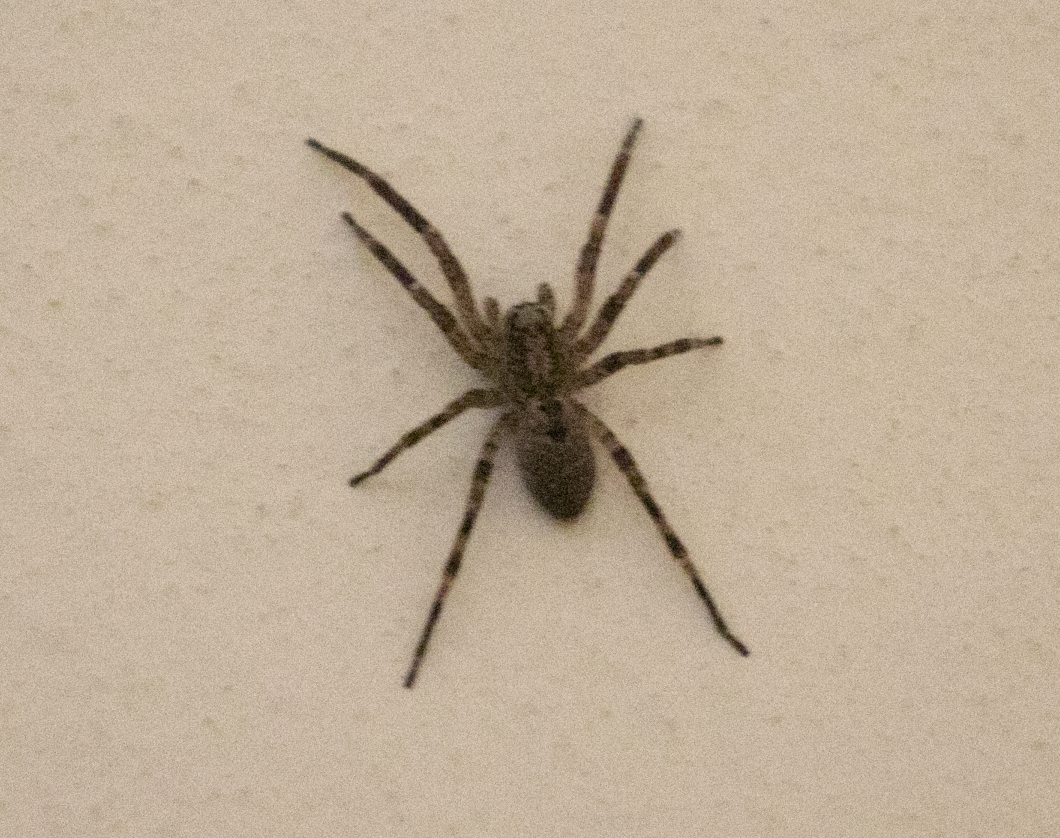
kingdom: Animalia
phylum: Arthropoda
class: Arachnida
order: Araneae
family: Zoropsidae
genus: Zoropsis
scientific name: Zoropsis spinimana
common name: Zoropsid spider
